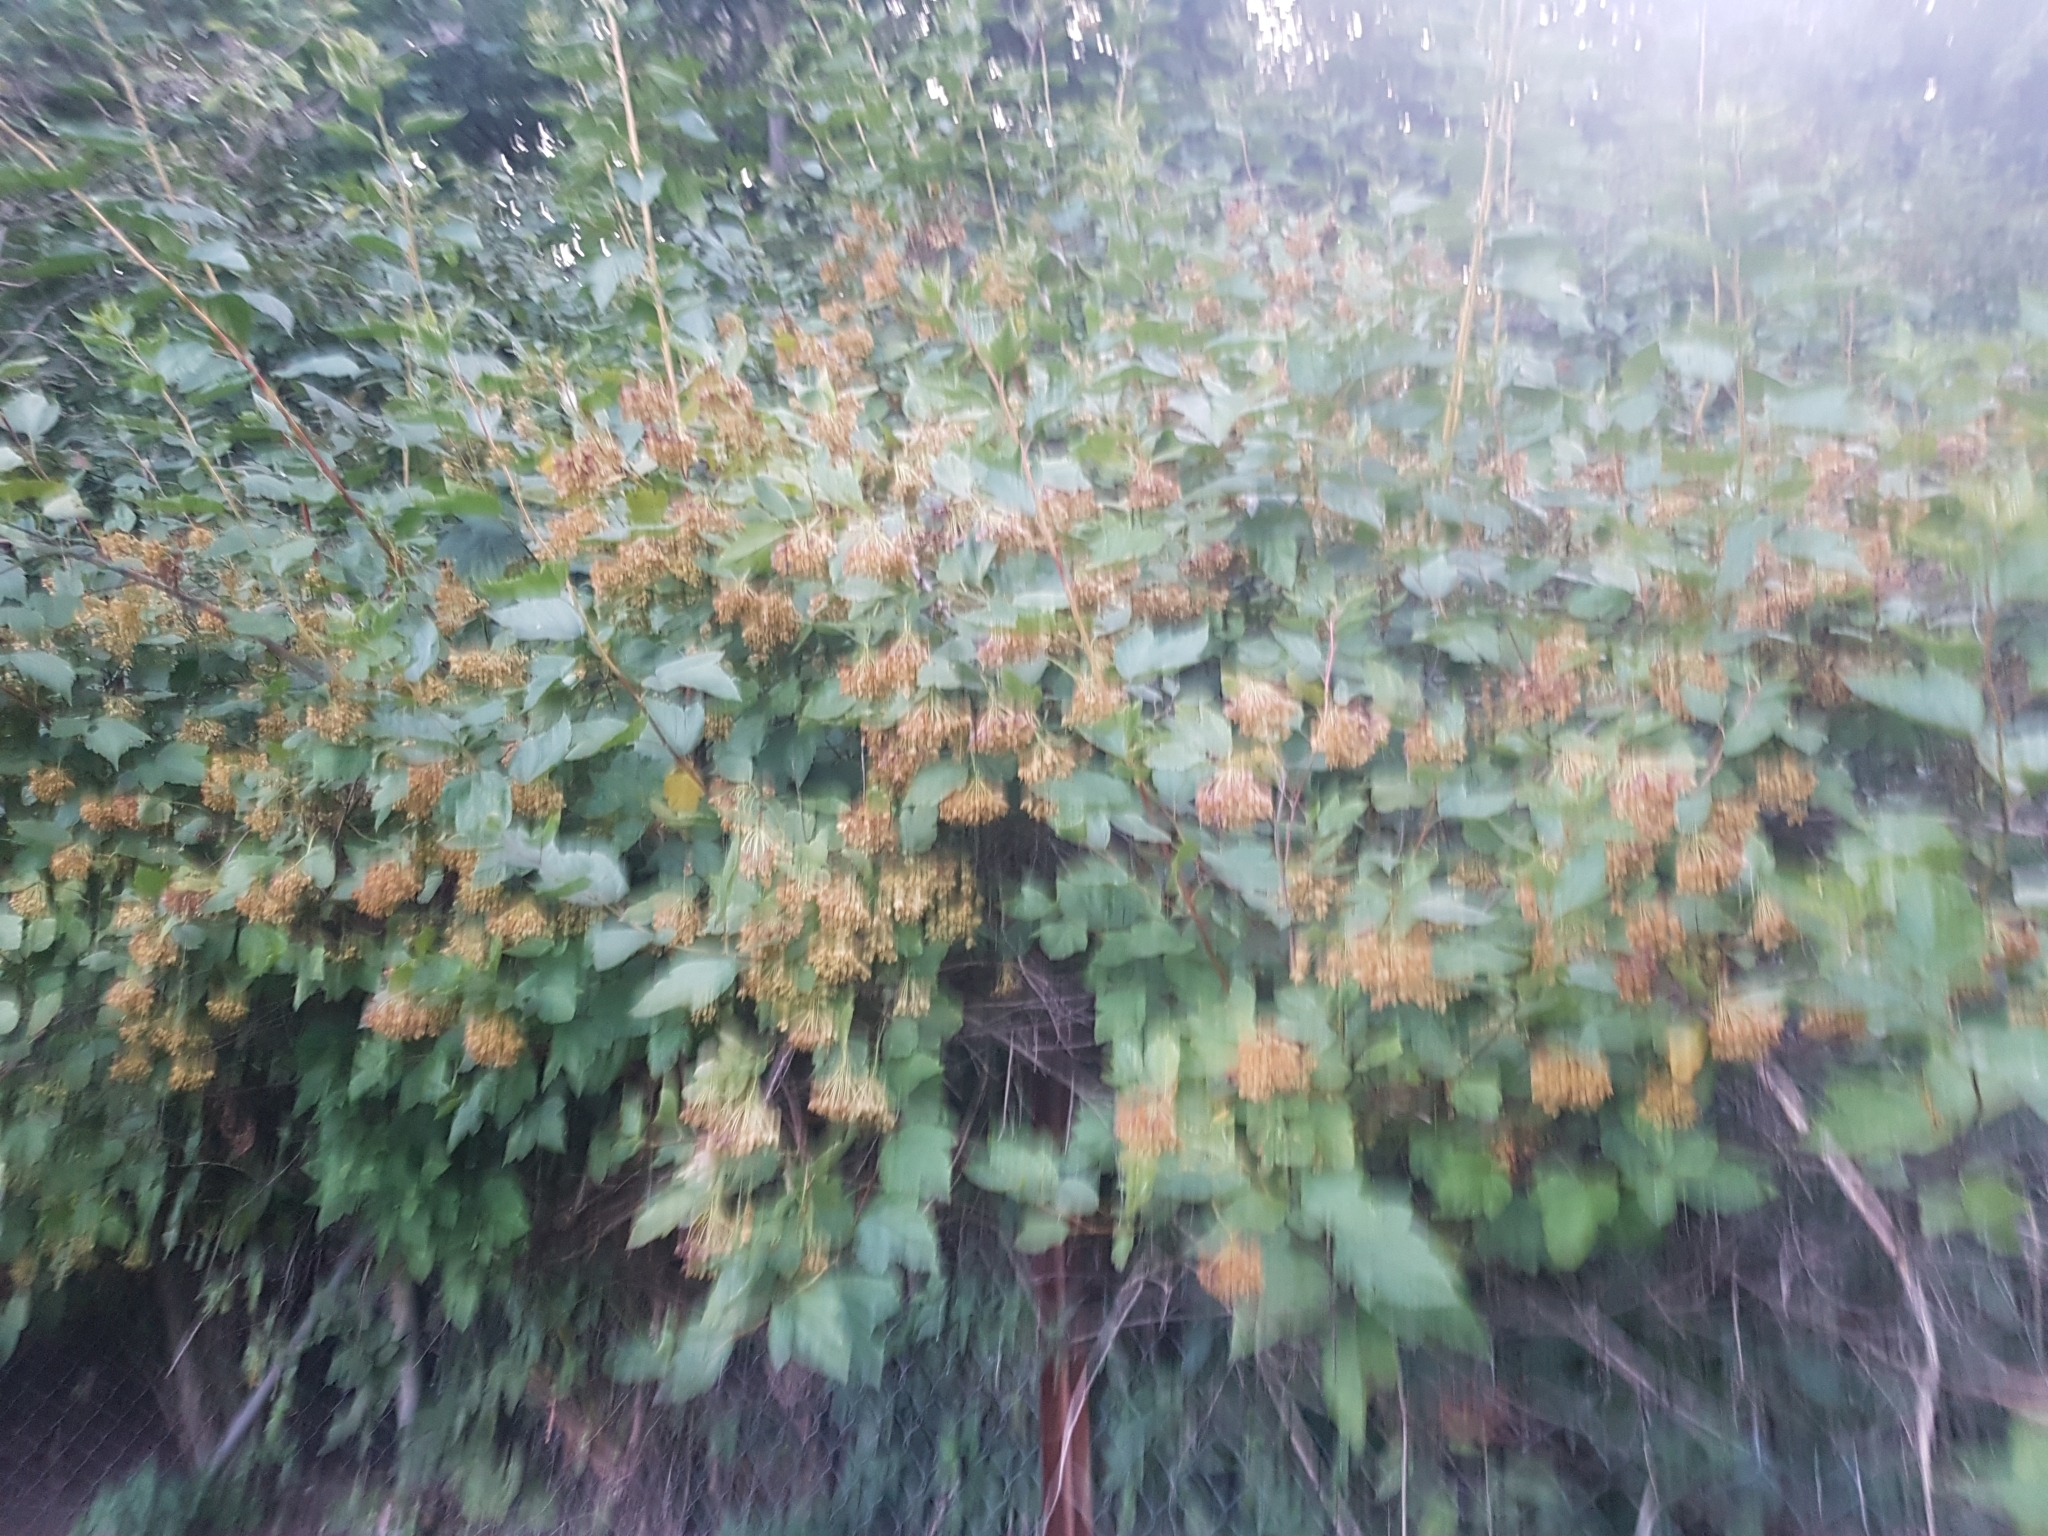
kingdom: Plantae
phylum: Tracheophyta
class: Magnoliopsida
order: Rosales
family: Rosaceae
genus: Physocarpus
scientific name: Physocarpus opulifolius
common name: Ninebark
